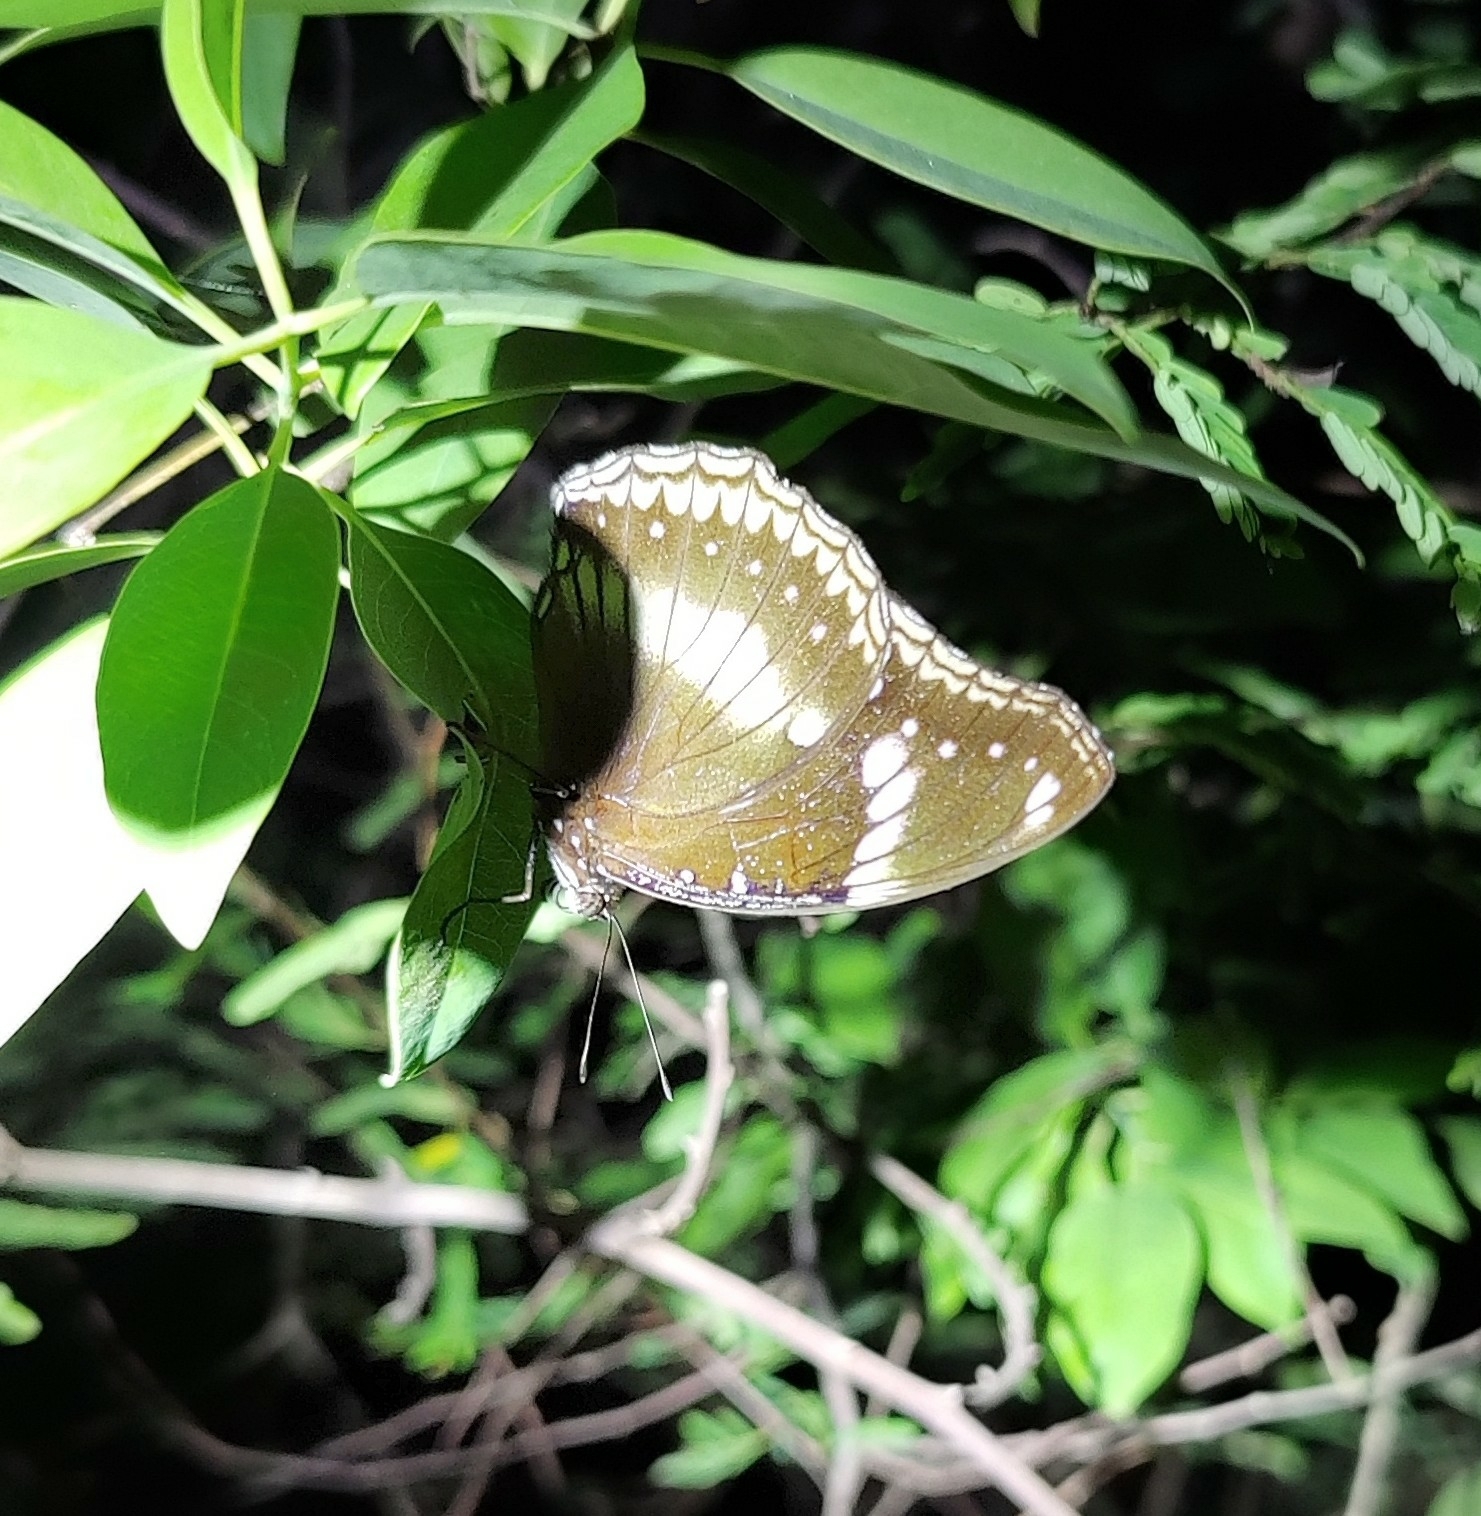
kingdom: Animalia
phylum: Arthropoda
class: Insecta
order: Lepidoptera
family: Nymphalidae
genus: Hypolimnas
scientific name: Hypolimnas bolina
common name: Great eggfly
